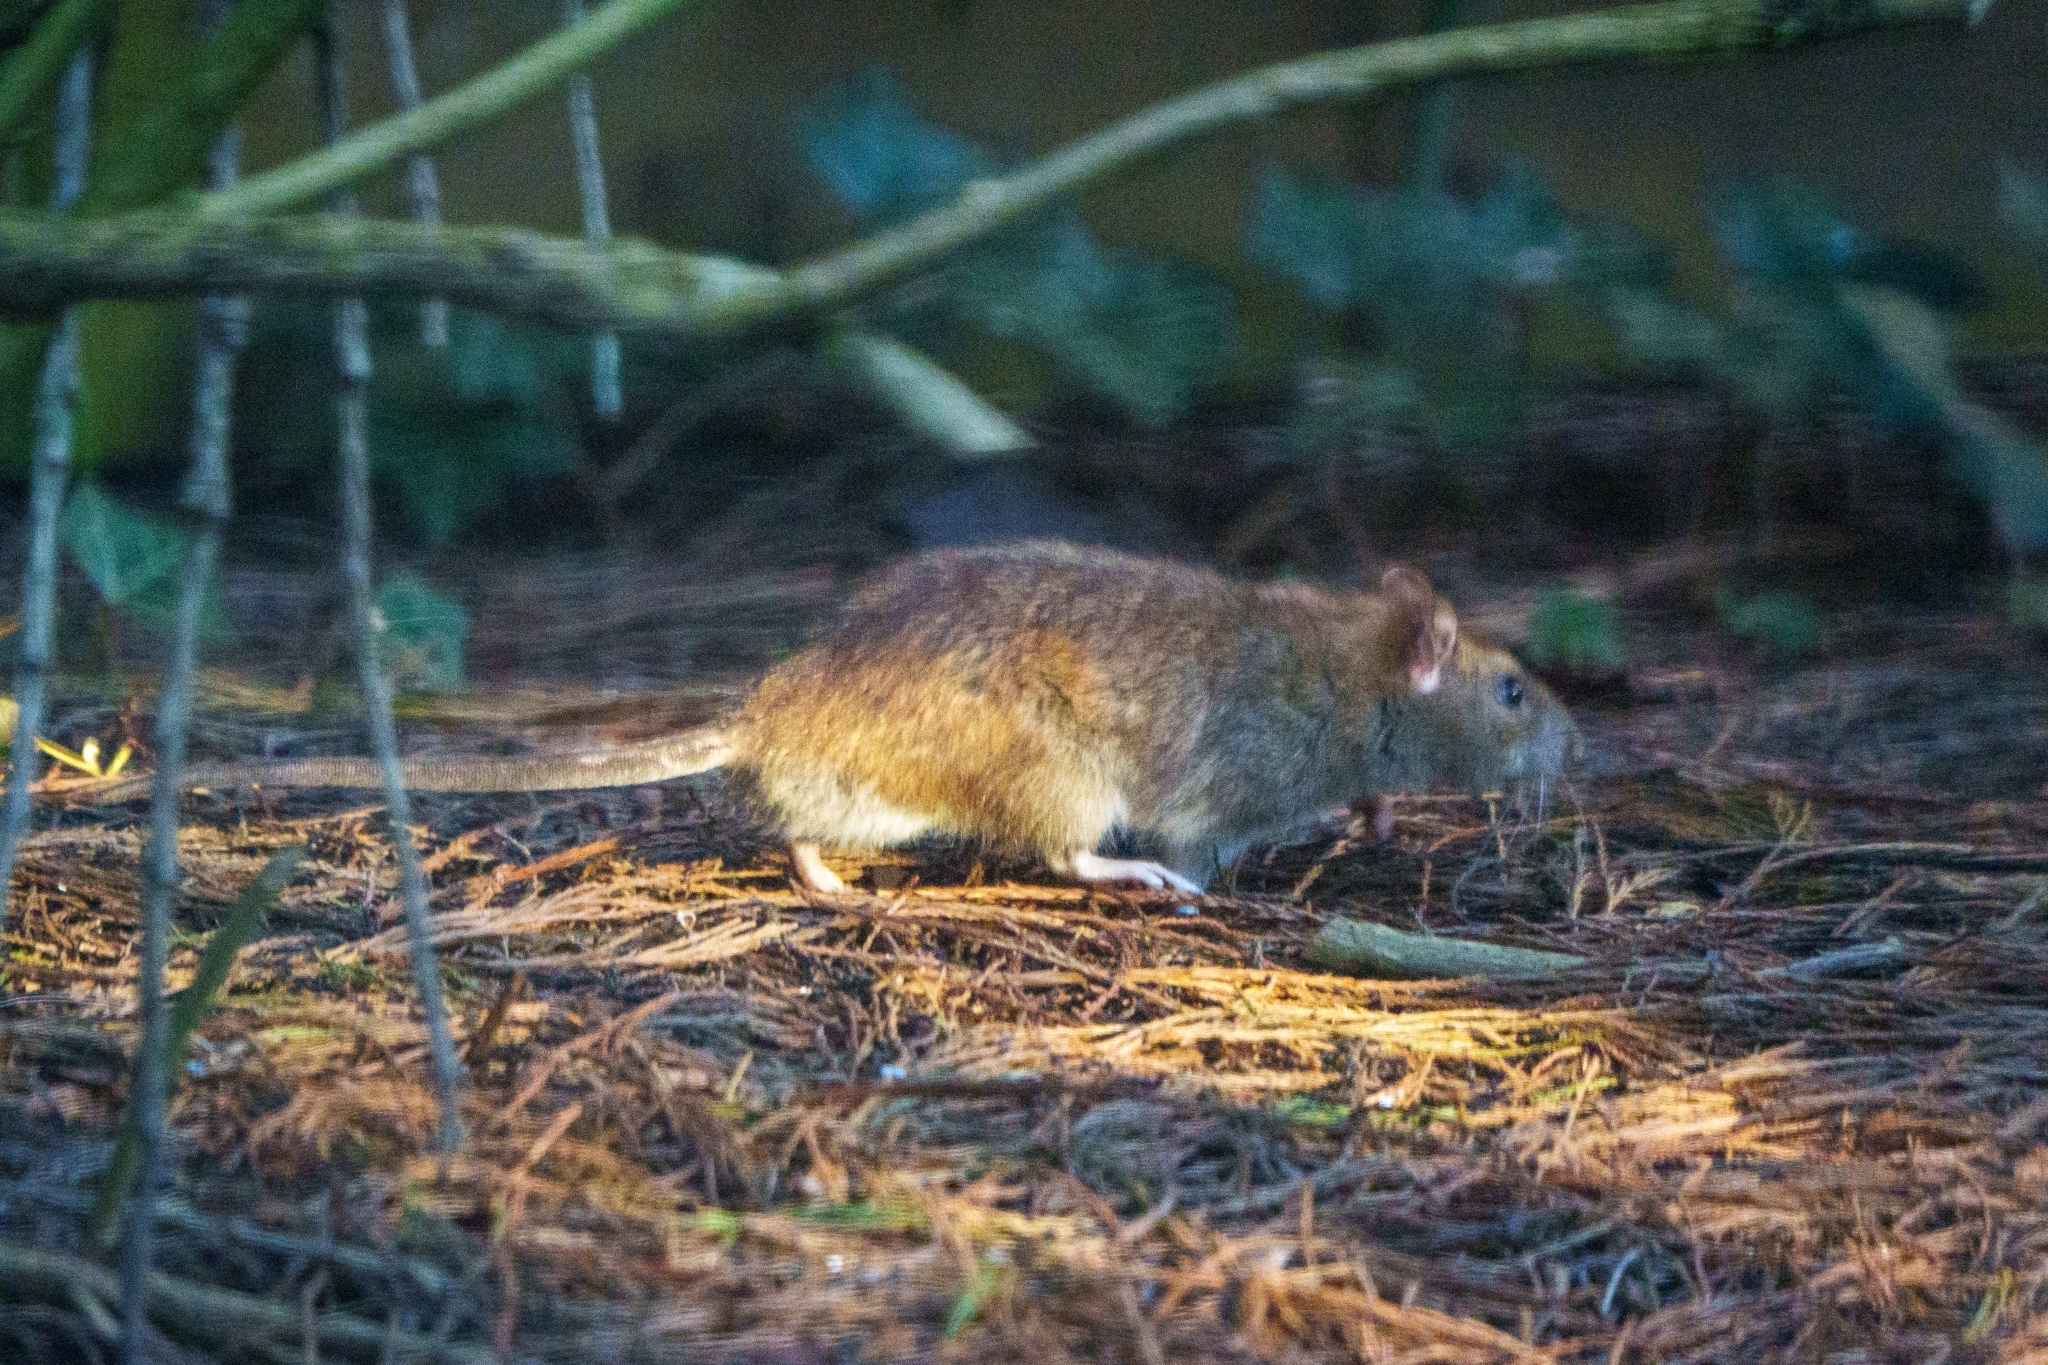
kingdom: Animalia
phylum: Chordata
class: Mammalia
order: Rodentia
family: Muridae
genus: Rattus
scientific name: Rattus norvegicus
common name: Brown rat
